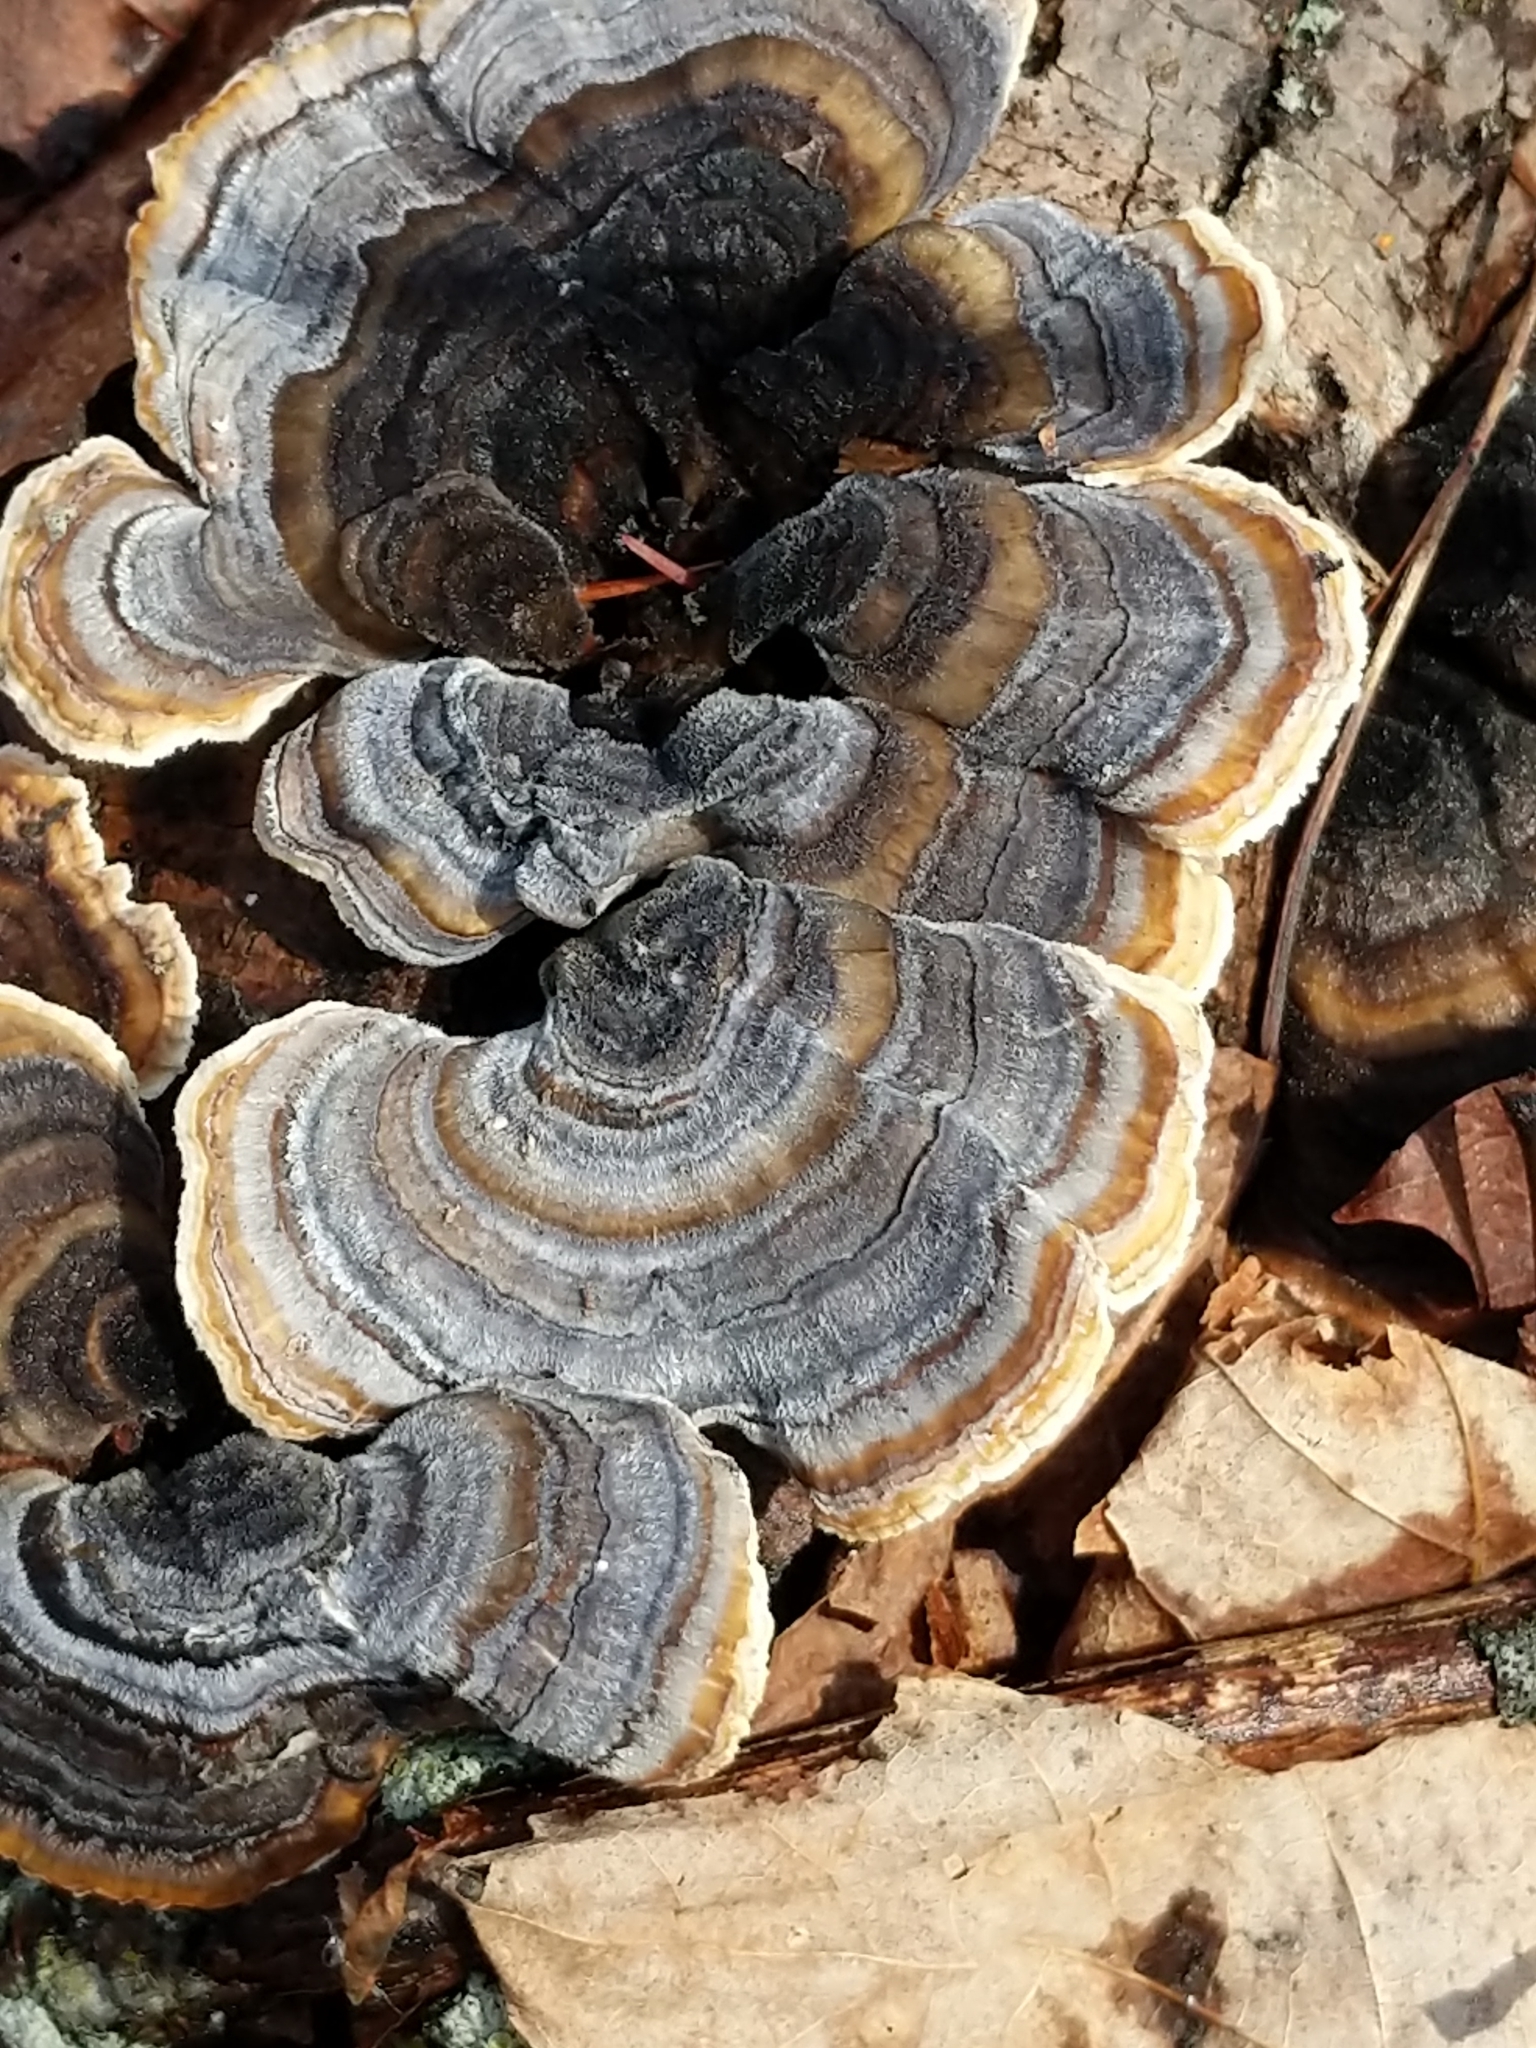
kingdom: Fungi
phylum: Basidiomycota
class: Agaricomycetes
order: Polyporales
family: Polyporaceae
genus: Trametes
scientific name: Trametes versicolor
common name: Turkeytail
